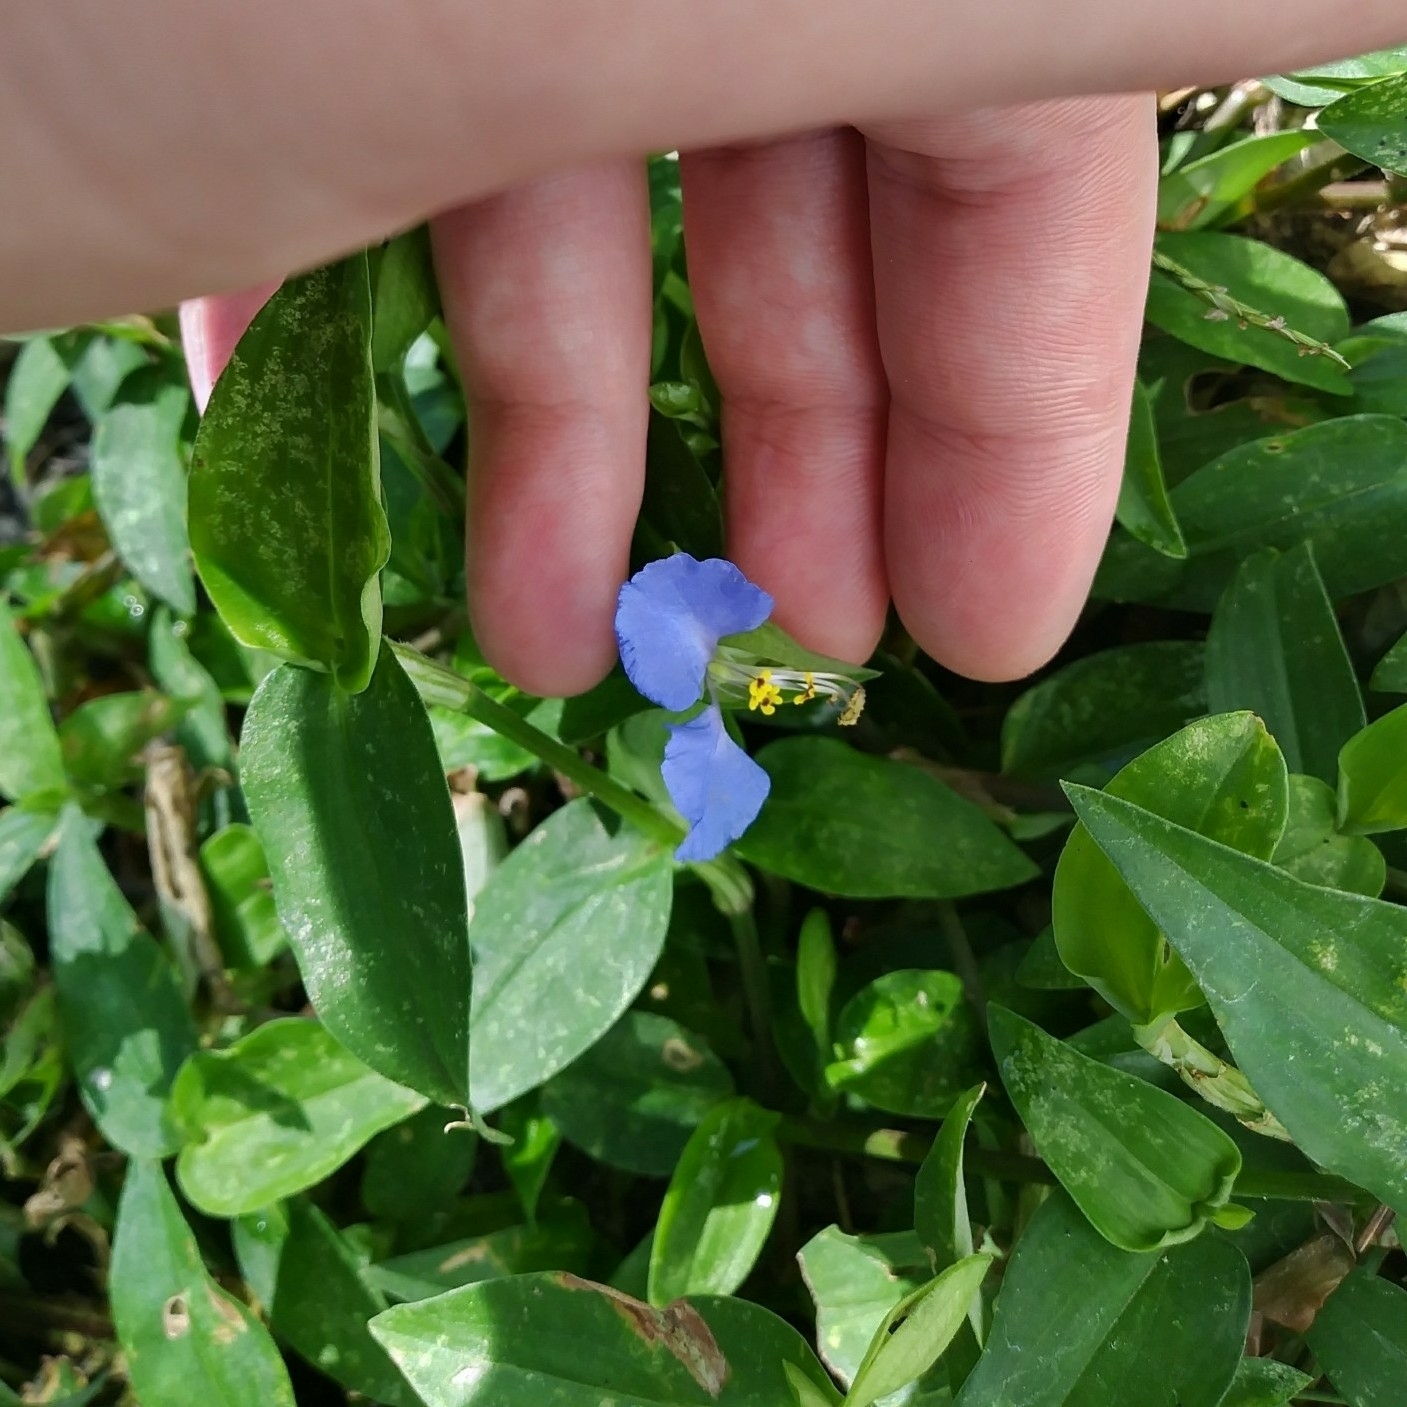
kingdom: Plantae
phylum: Tracheophyta
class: Liliopsida
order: Commelinales
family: Commelinaceae
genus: Commelina
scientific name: Commelina communis
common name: Asiatic dayflower
